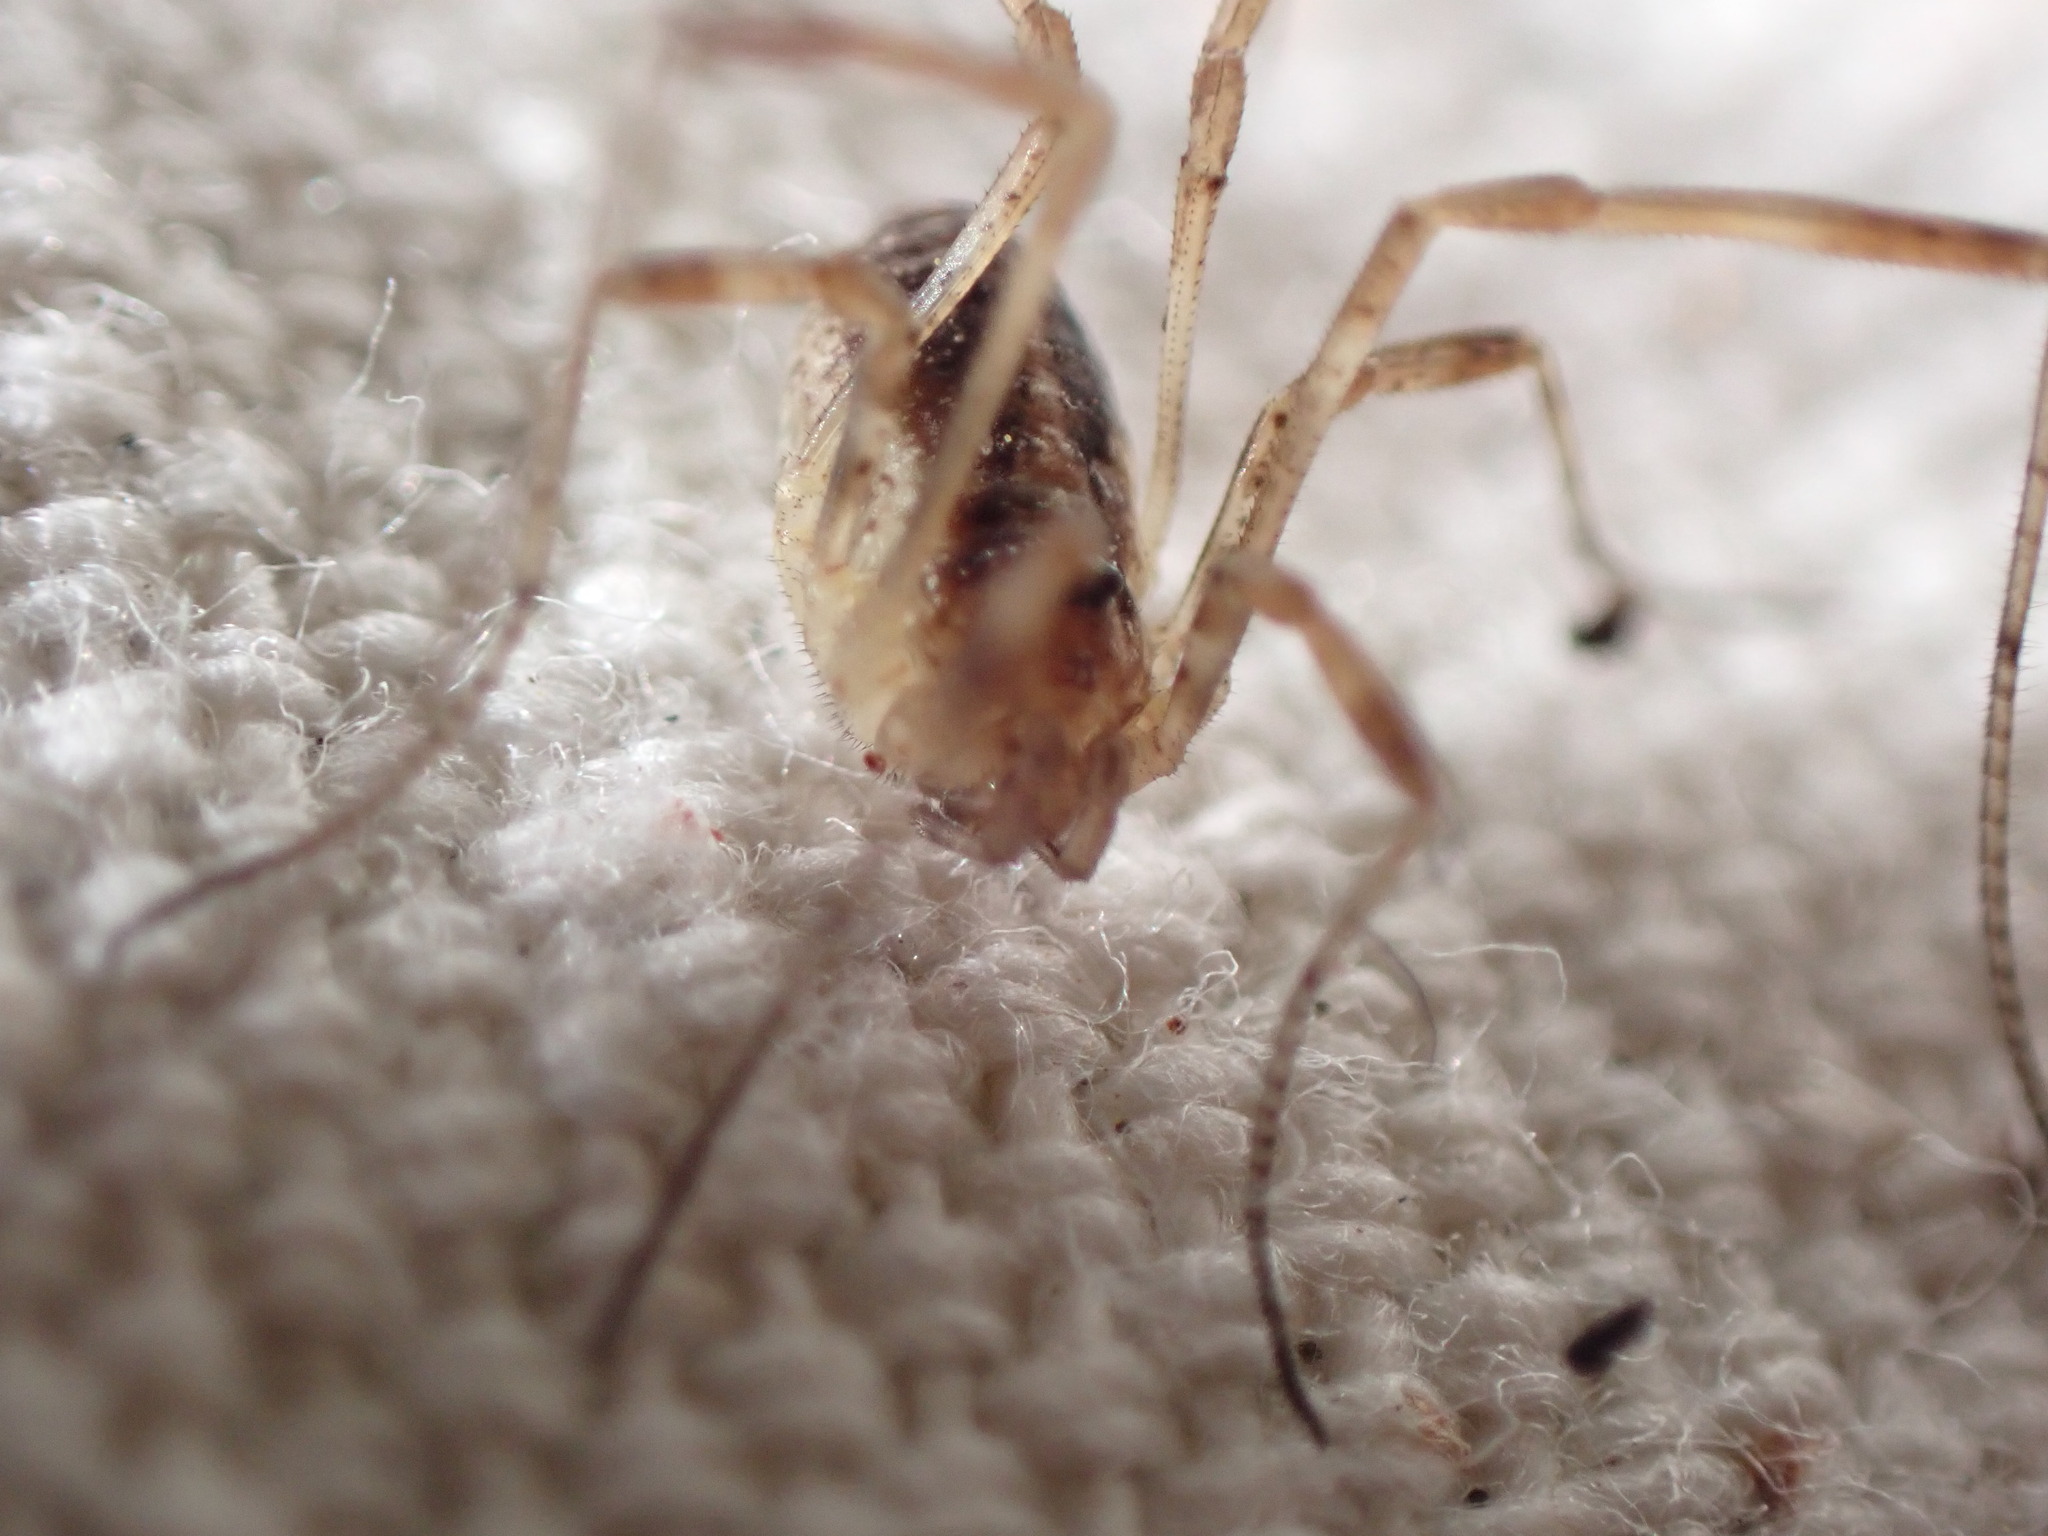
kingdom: Animalia
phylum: Arthropoda
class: Arachnida
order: Opiliones
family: Phalangiidae
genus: Paroligolophus
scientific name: Paroligolophus agrestis
